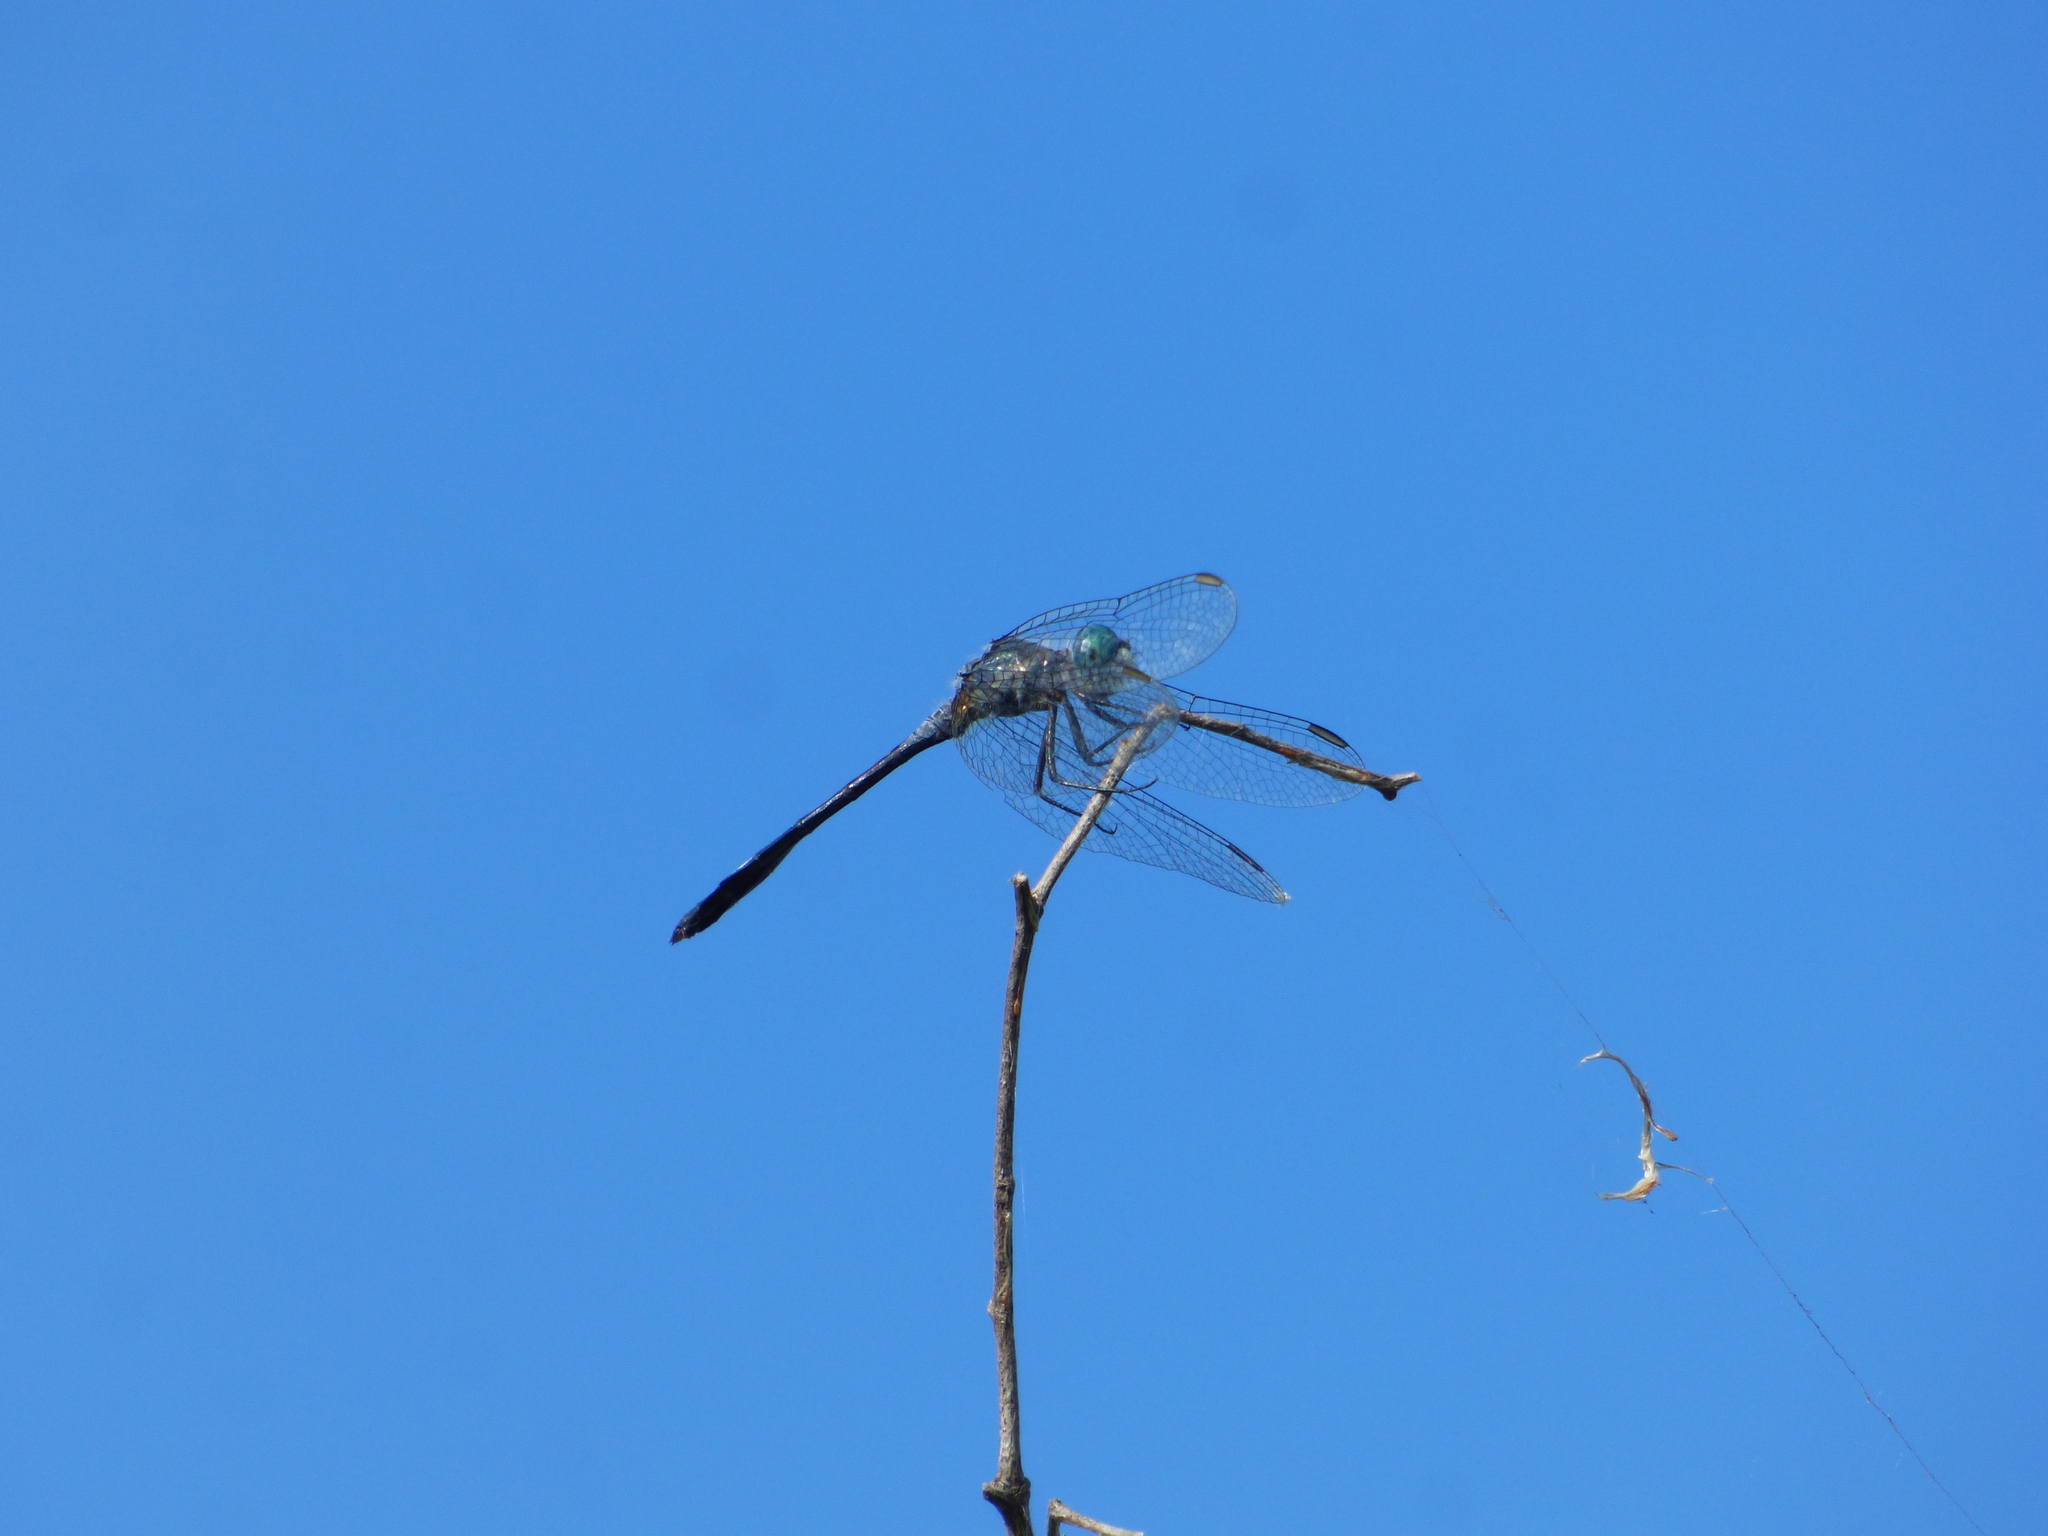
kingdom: Animalia
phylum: Arthropoda
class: Insecta
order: Odonata
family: Libellulidae
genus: Micrathyria
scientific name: Micrathyria longifasciata
